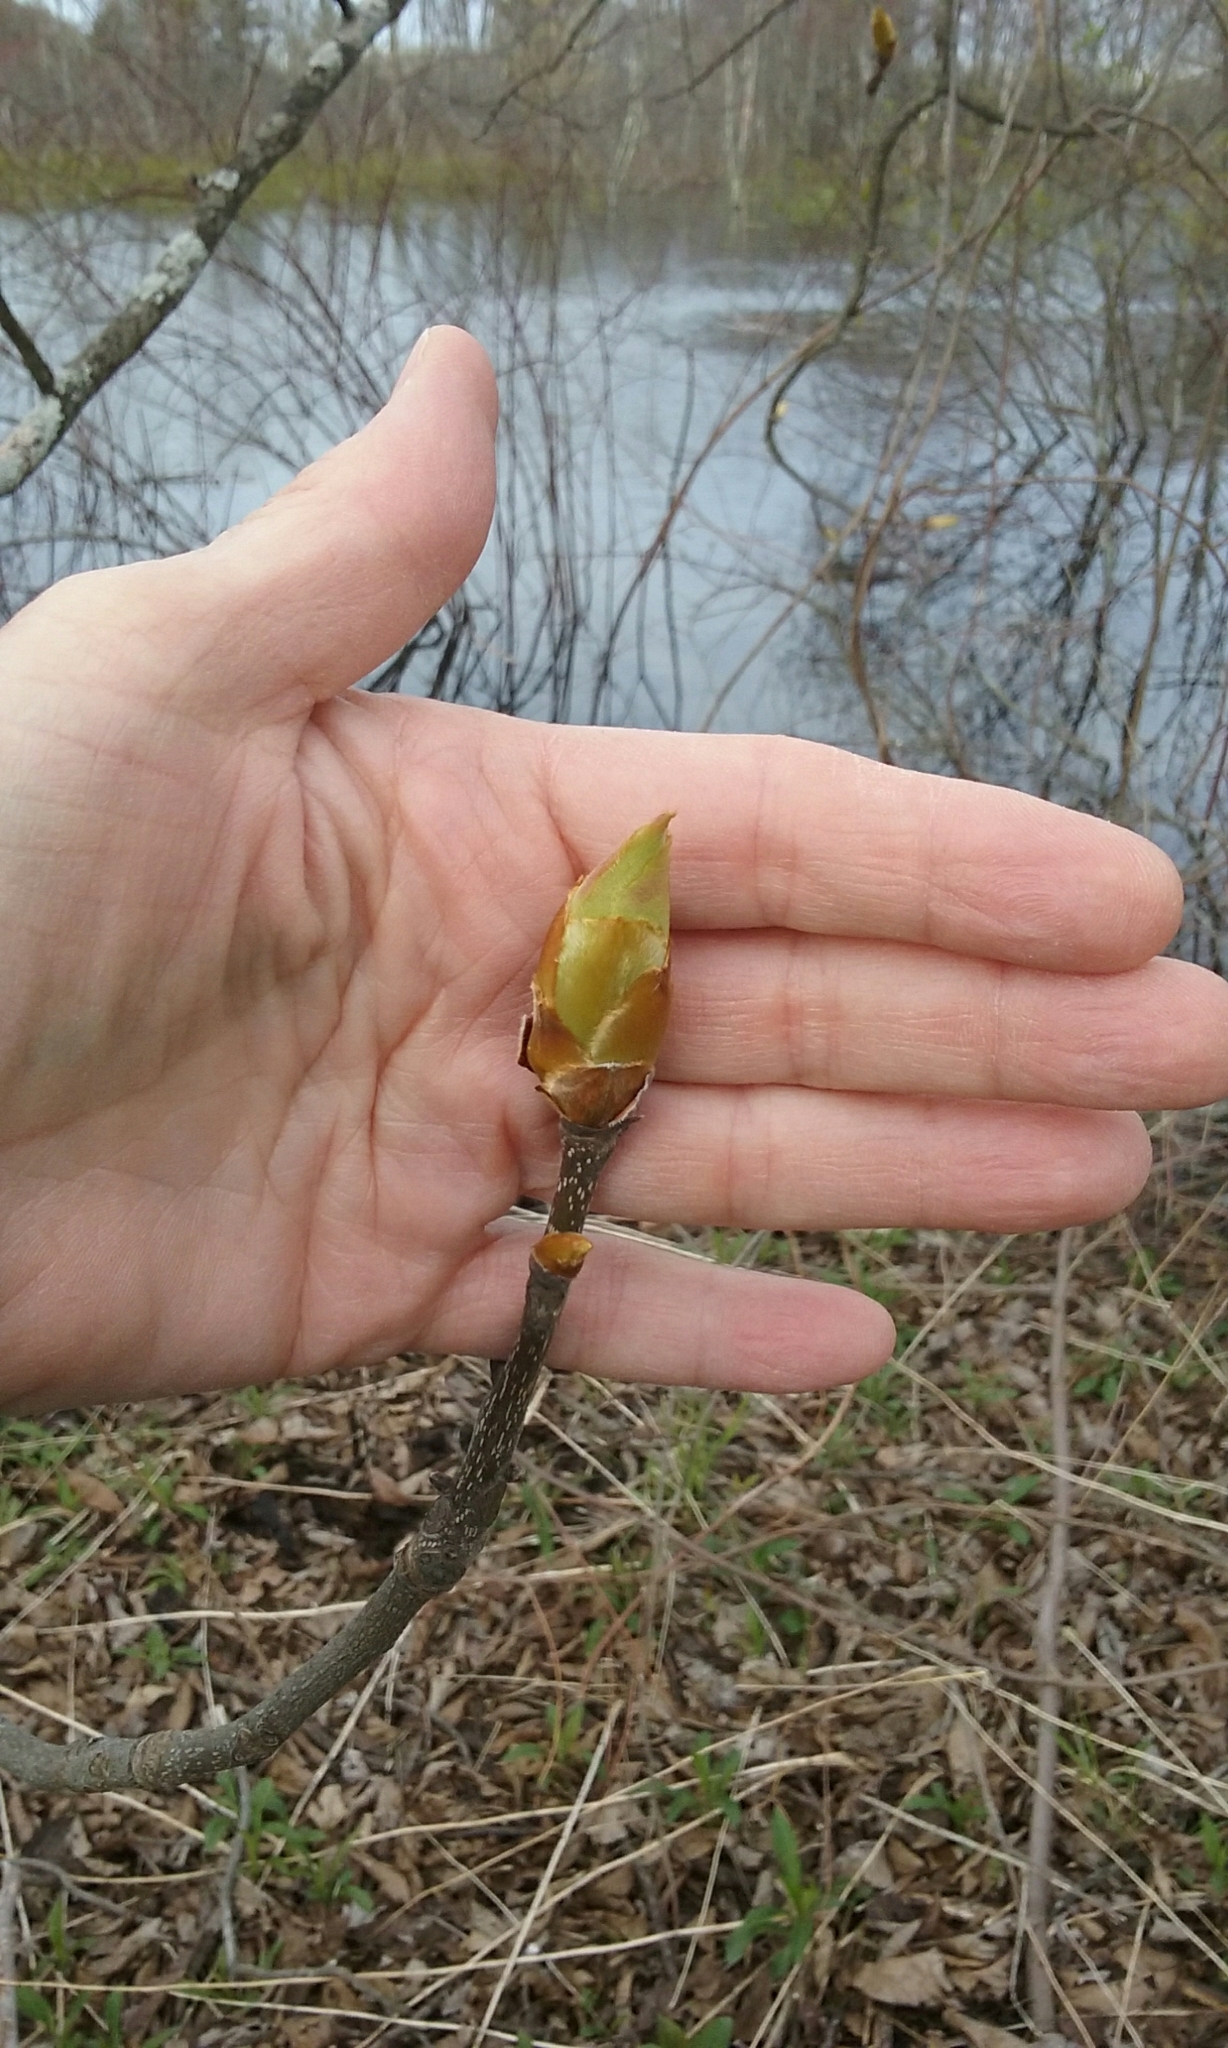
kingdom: Plantae
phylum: Tracheophyta
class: Magnoliopsida
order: Fagales
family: Juglandaceae
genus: Carya
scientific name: Carya ovata
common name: Shagbark hickory
